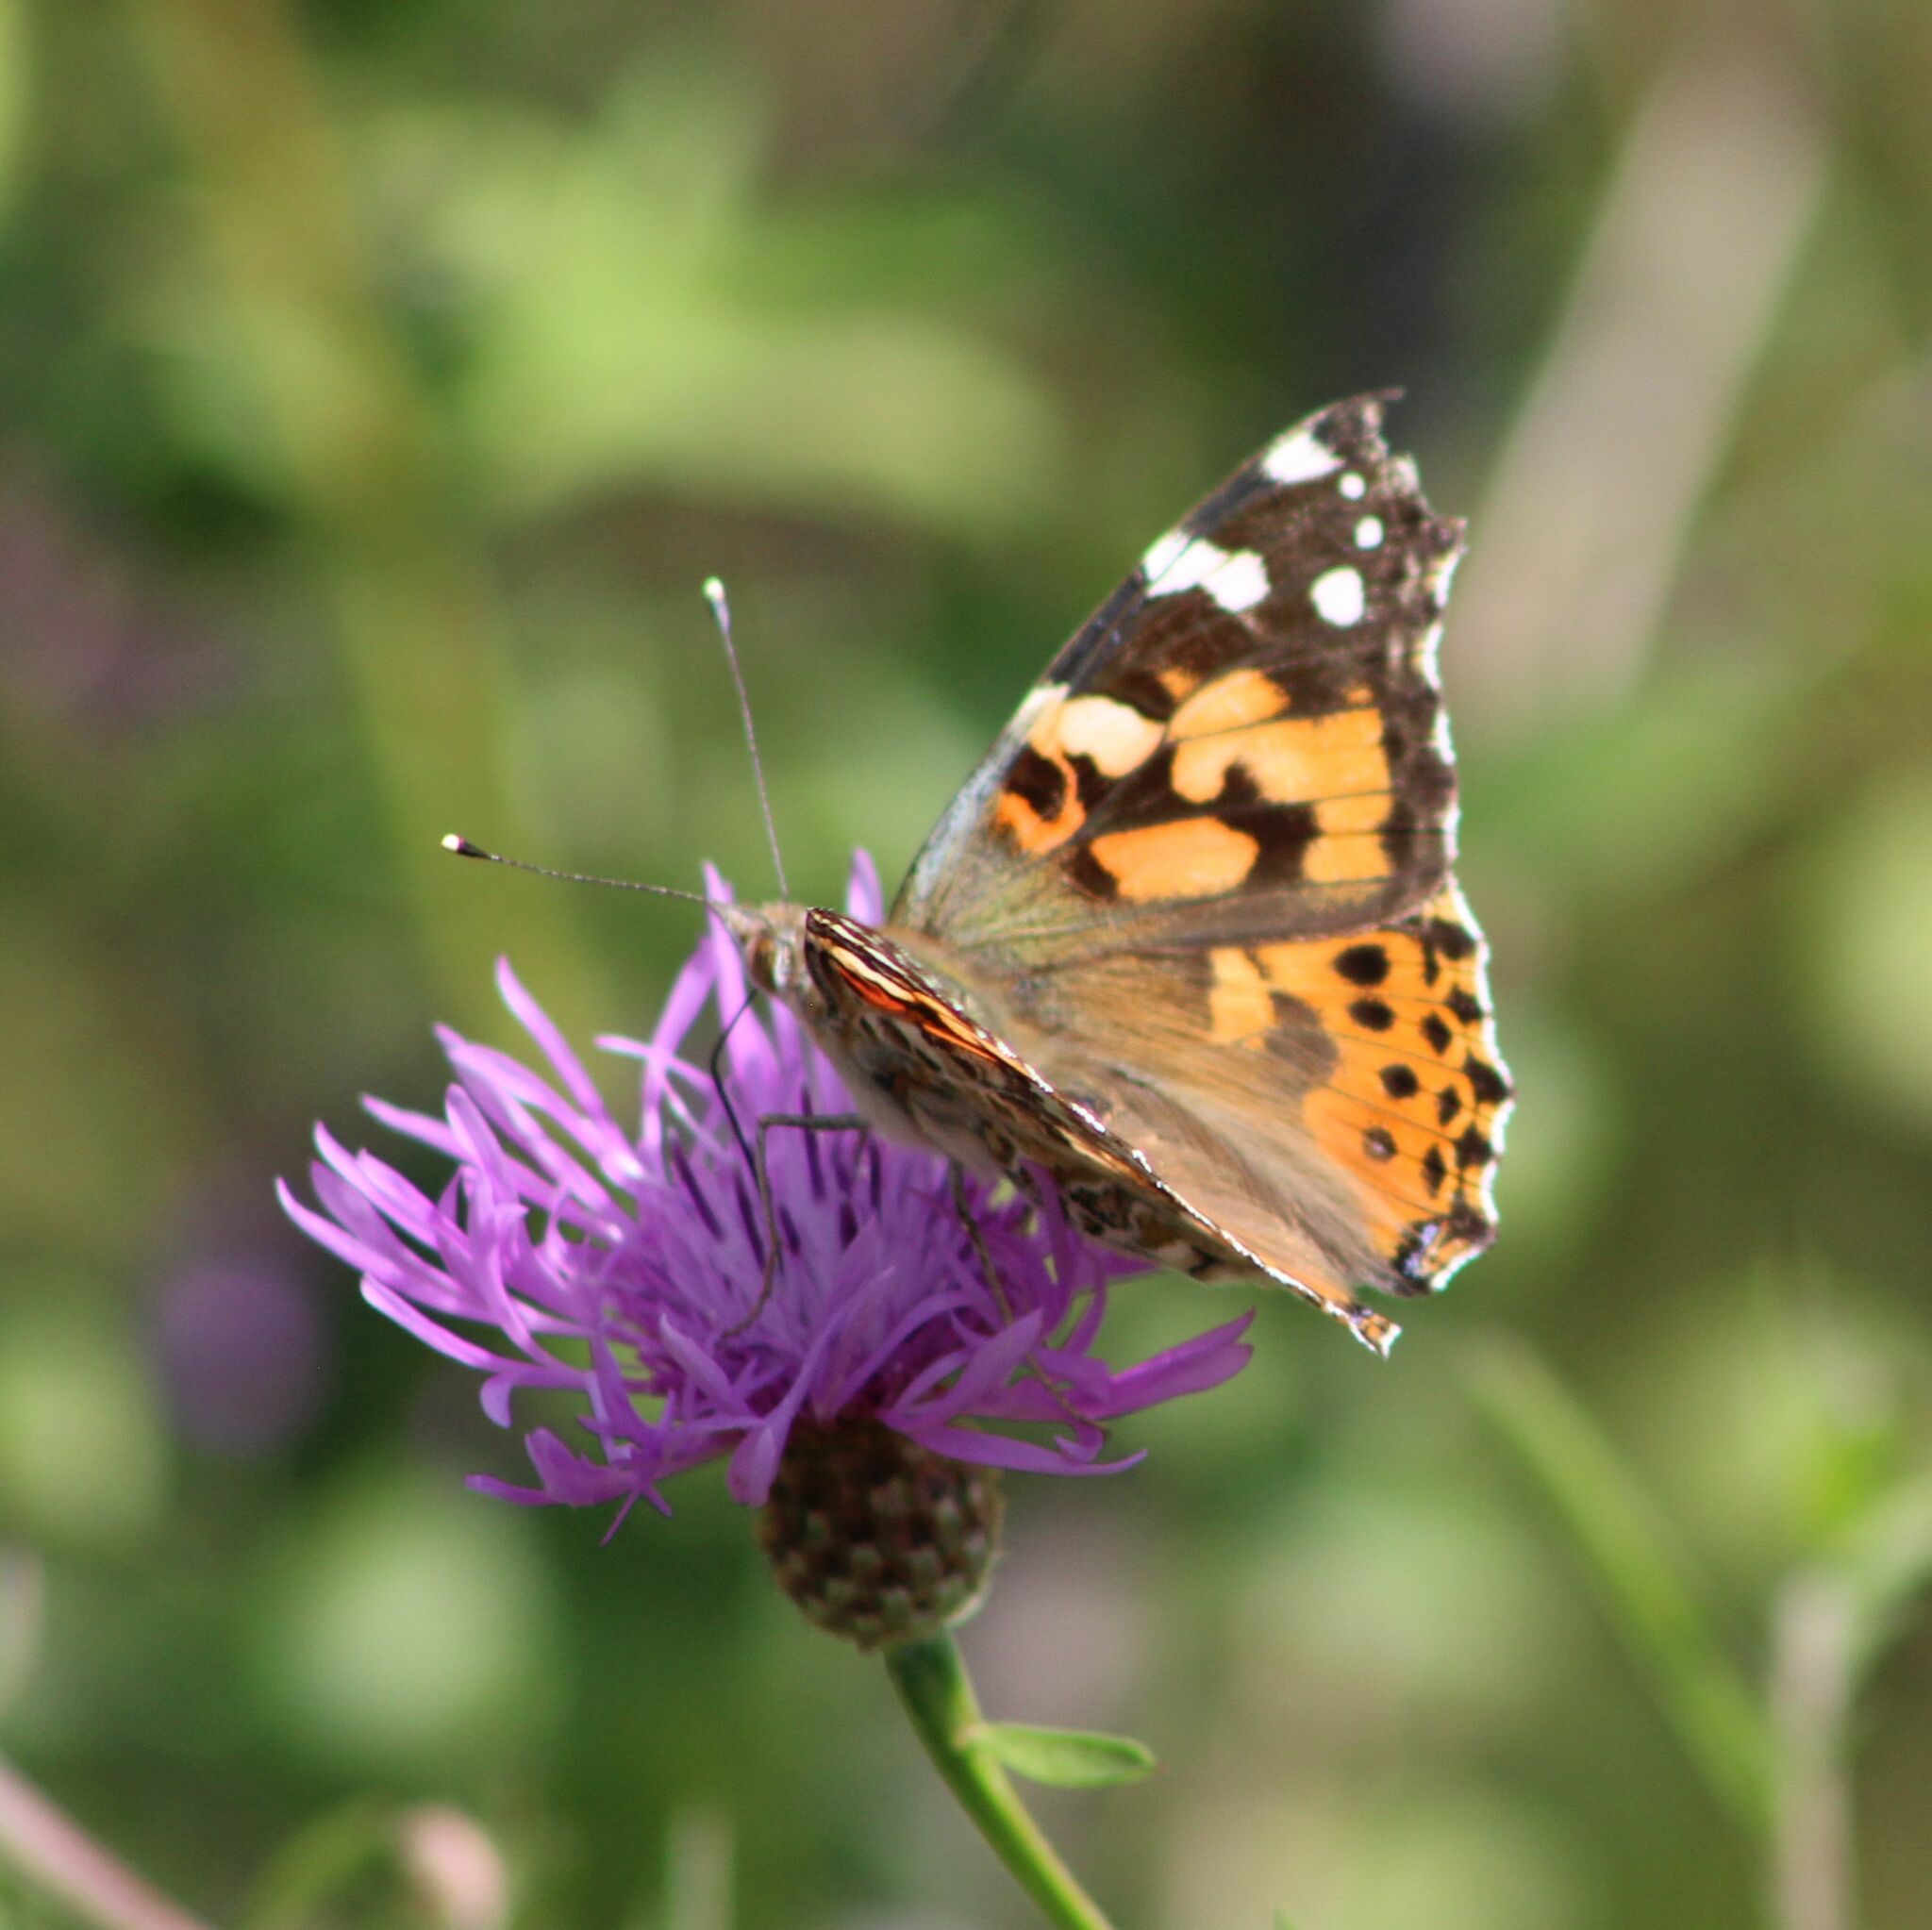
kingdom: Animalia
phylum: Arthropoda
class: Insecta
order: Lepidoptera
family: Nymphalidae
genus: Vanessa
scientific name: Vanessa cardui
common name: Painted lady
